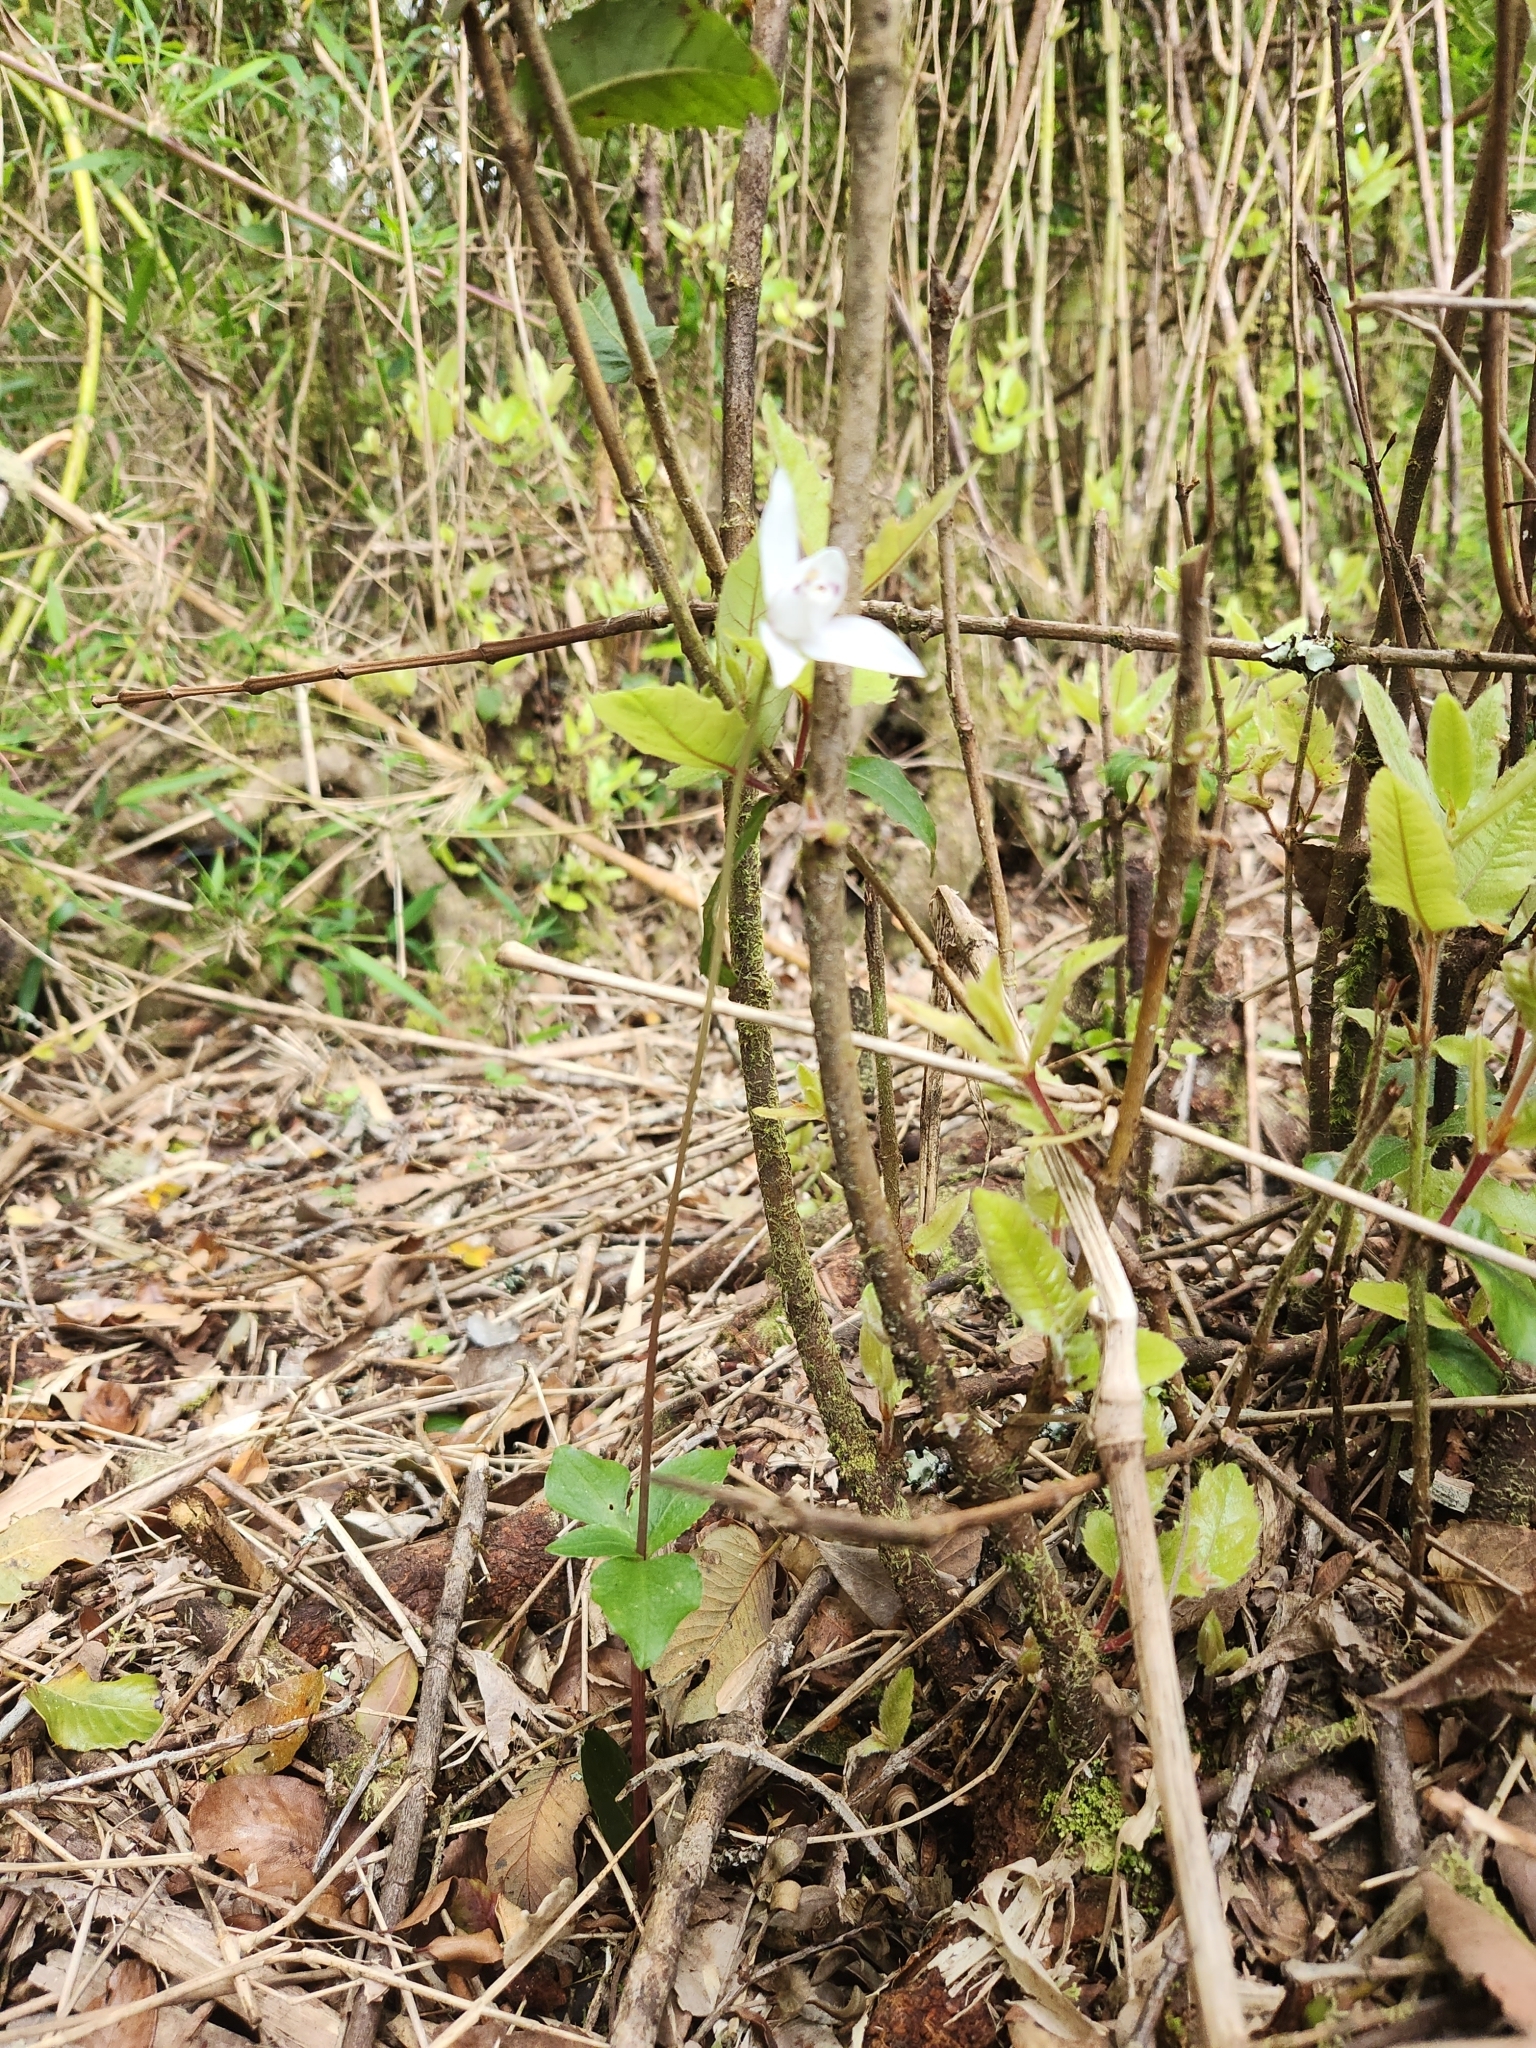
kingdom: Plantae
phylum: Tracheophyta
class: Liliopsida
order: Asparagales
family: Orchidaceae
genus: Codonorchis
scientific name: Codonorchis lessonii
